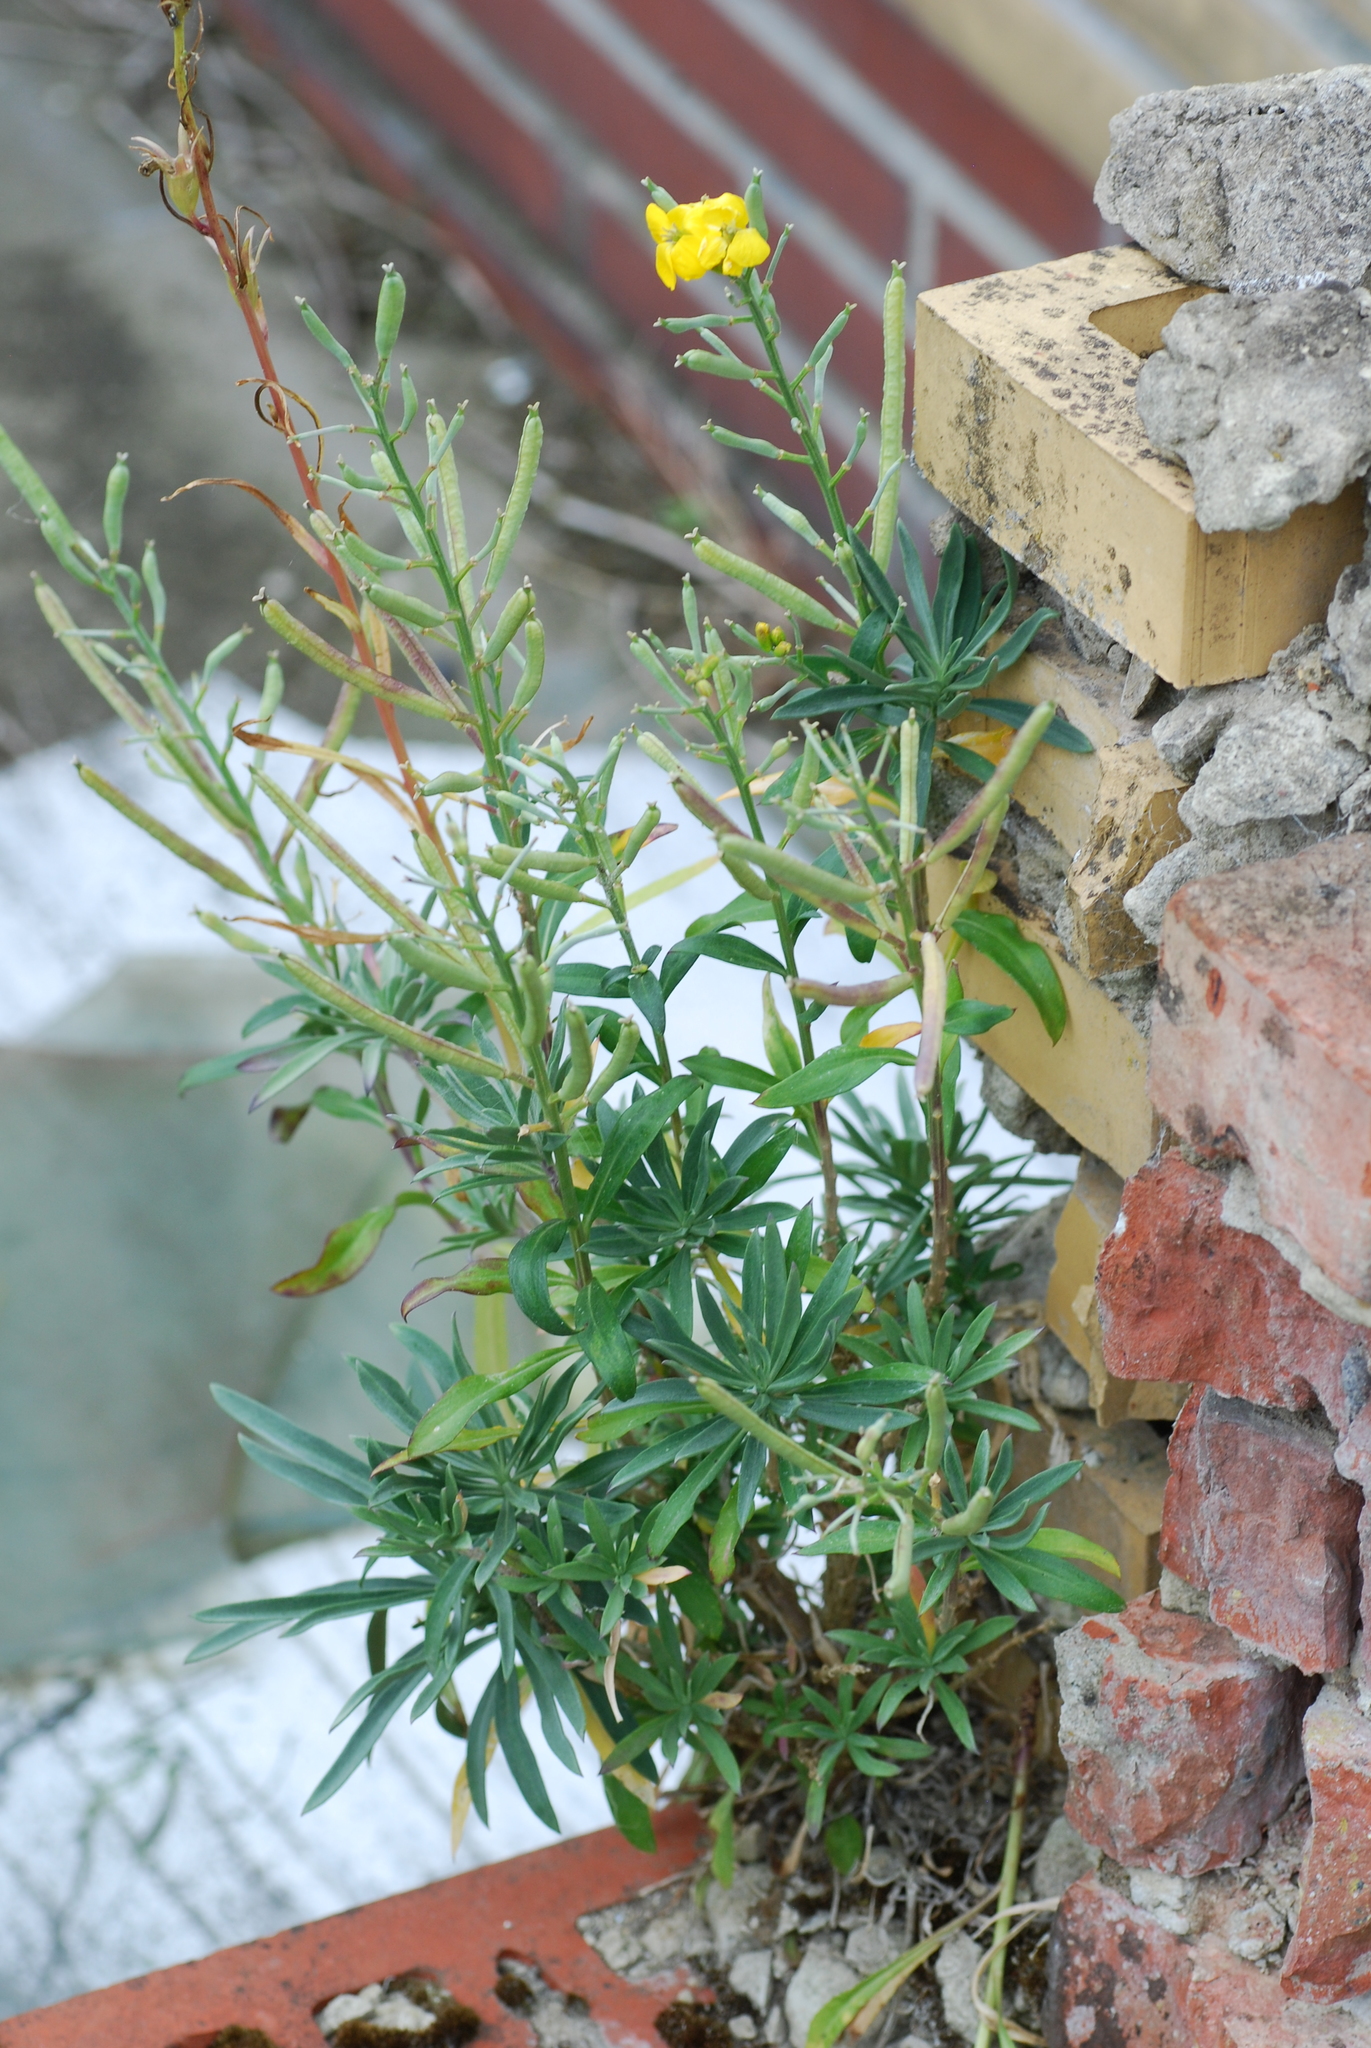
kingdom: Plantae
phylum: Tracheophyta
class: Magnoliopsida
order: Brassicales
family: Brassicaceae
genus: Erysimum
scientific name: Erysimum cheiri
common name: Wallflower
